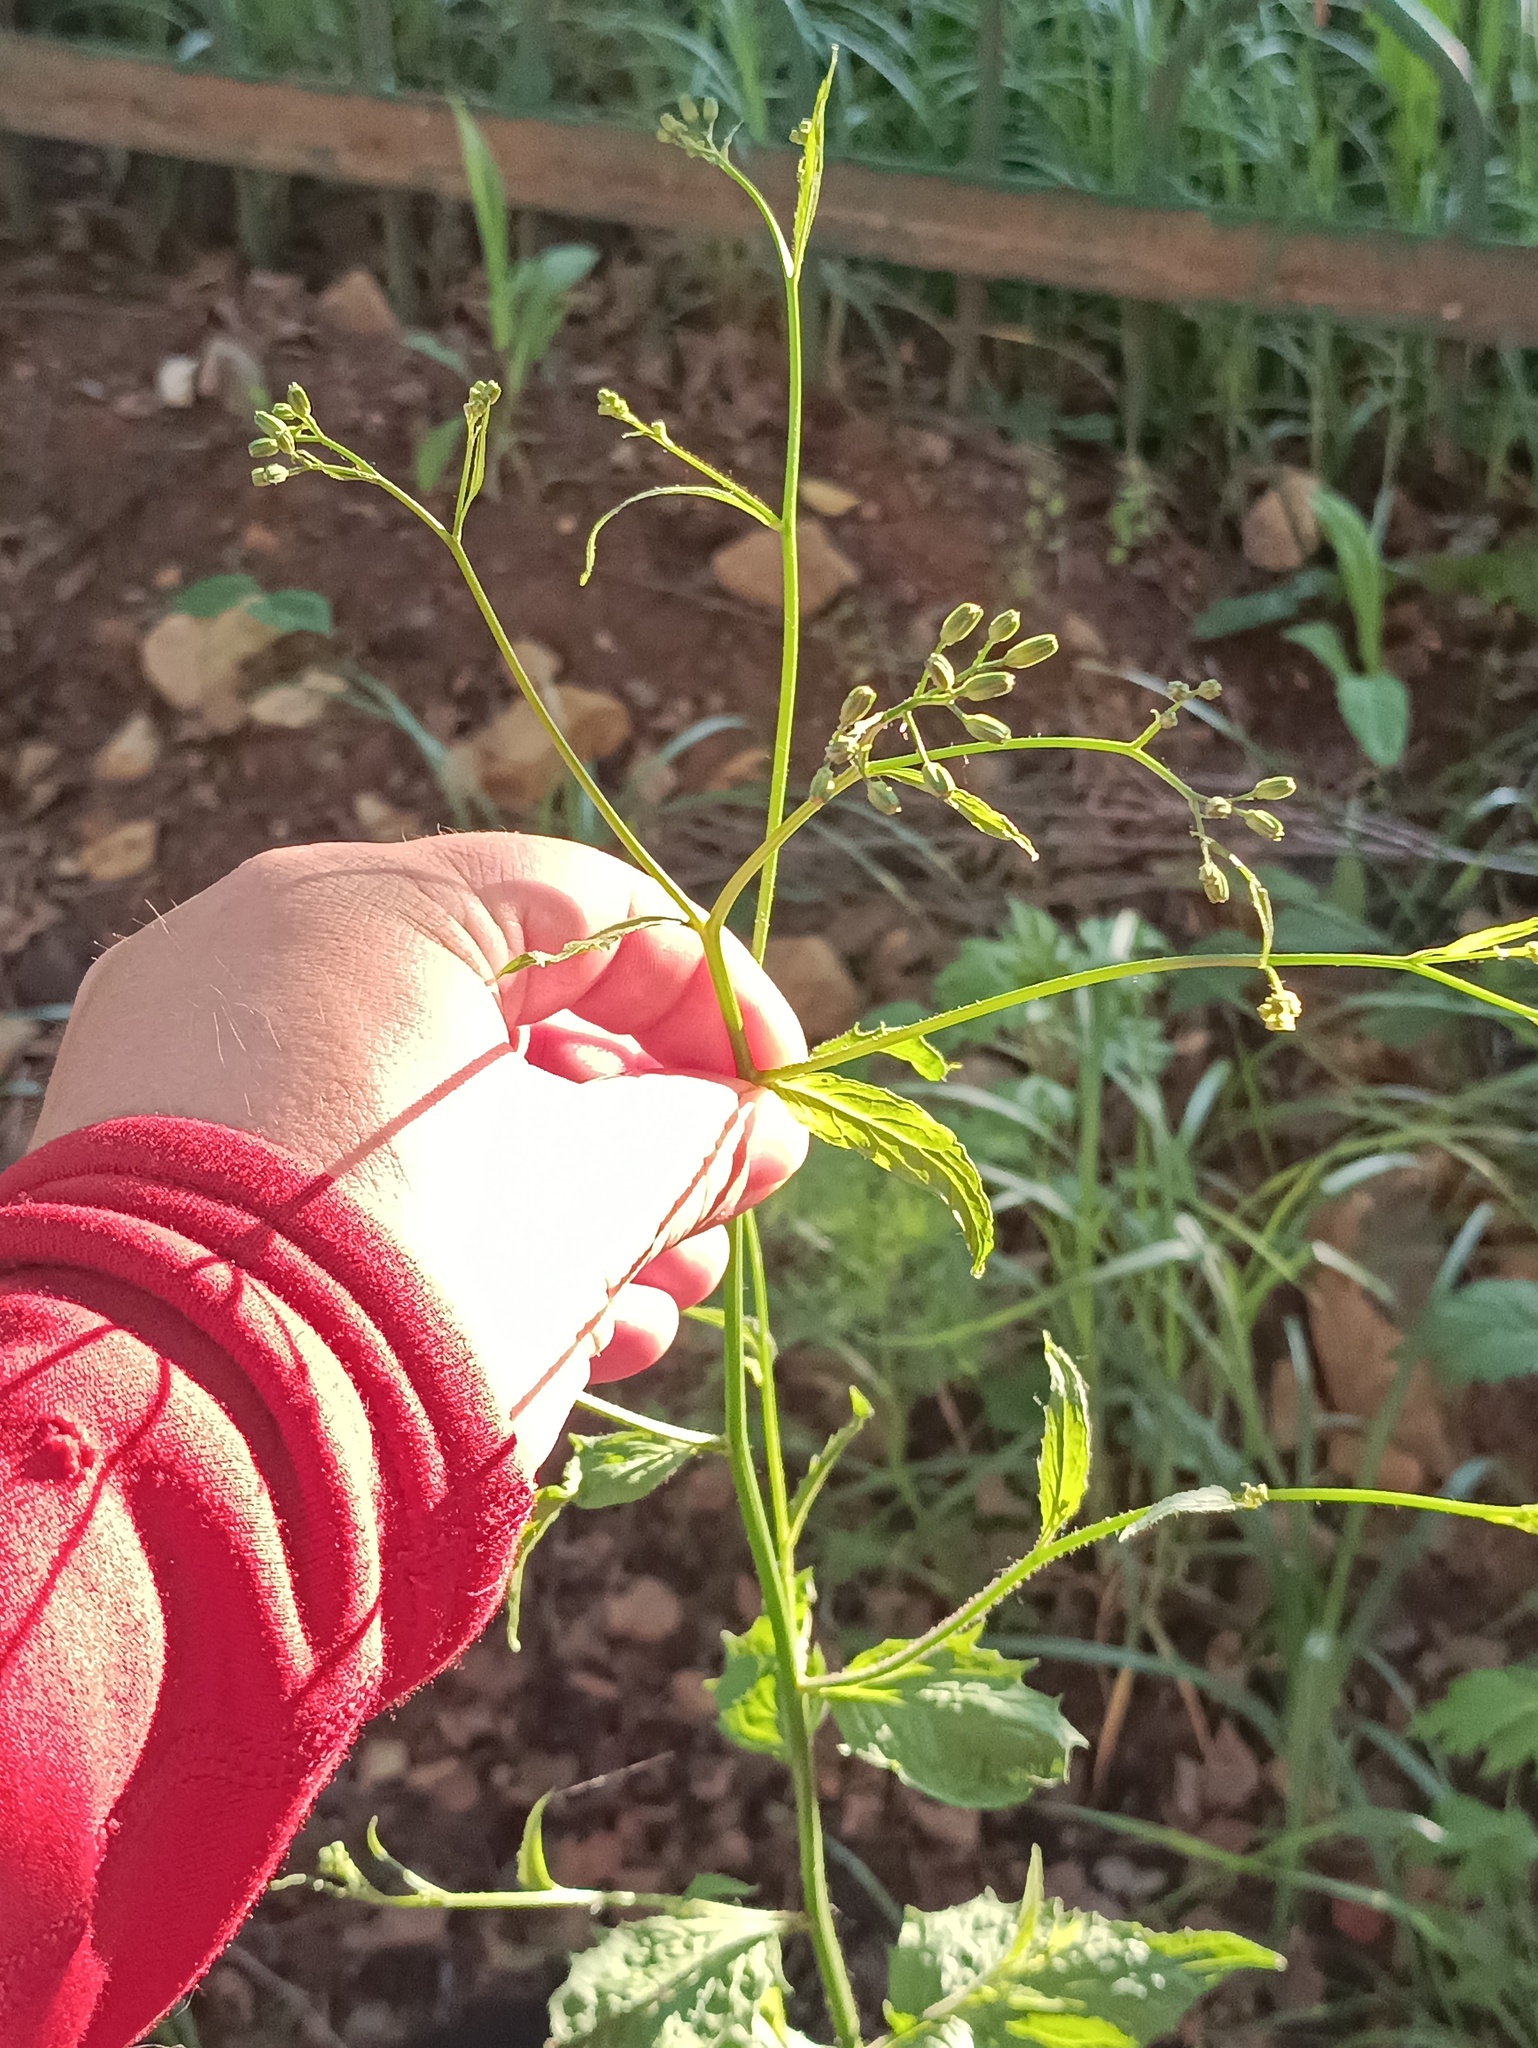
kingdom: Plantae
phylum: Tracheophyta
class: Magnoliopsida
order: Asterales
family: Asteraceae
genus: Lapsana
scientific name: Lapsana communis
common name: Nipplewort
